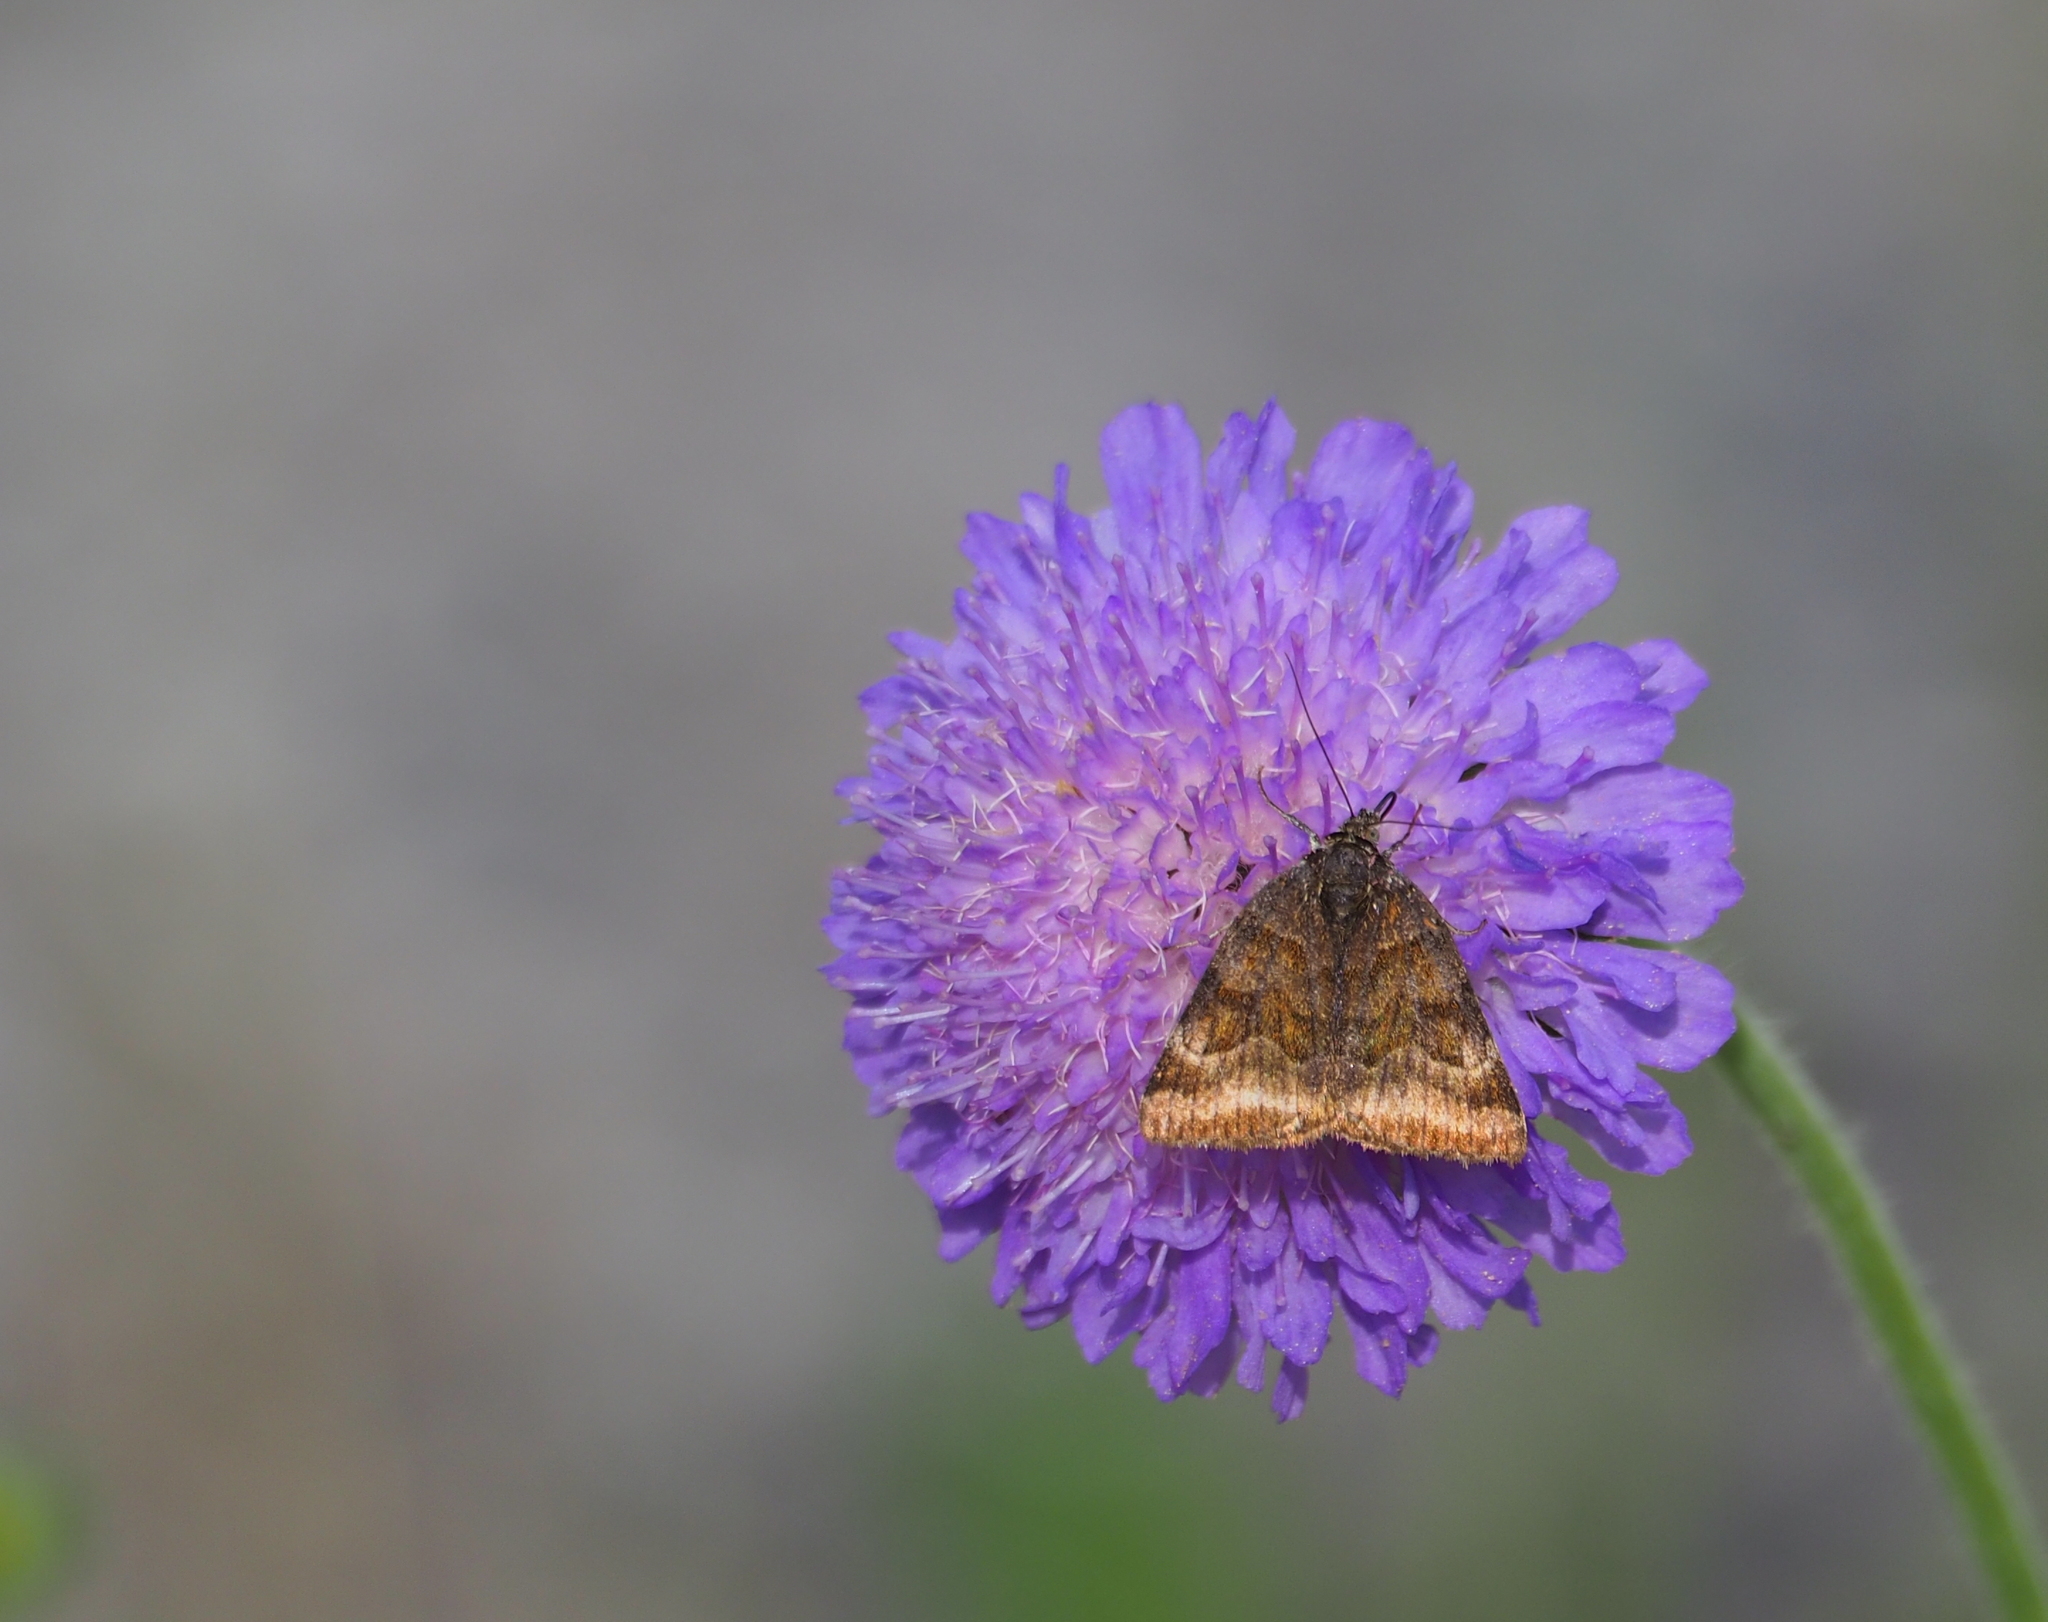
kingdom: Animalia
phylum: Arthropoda
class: Insecta
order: Lepidoptera
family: Erebidae
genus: Euclidia
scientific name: Euclidia glyphica
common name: Burnet companion
